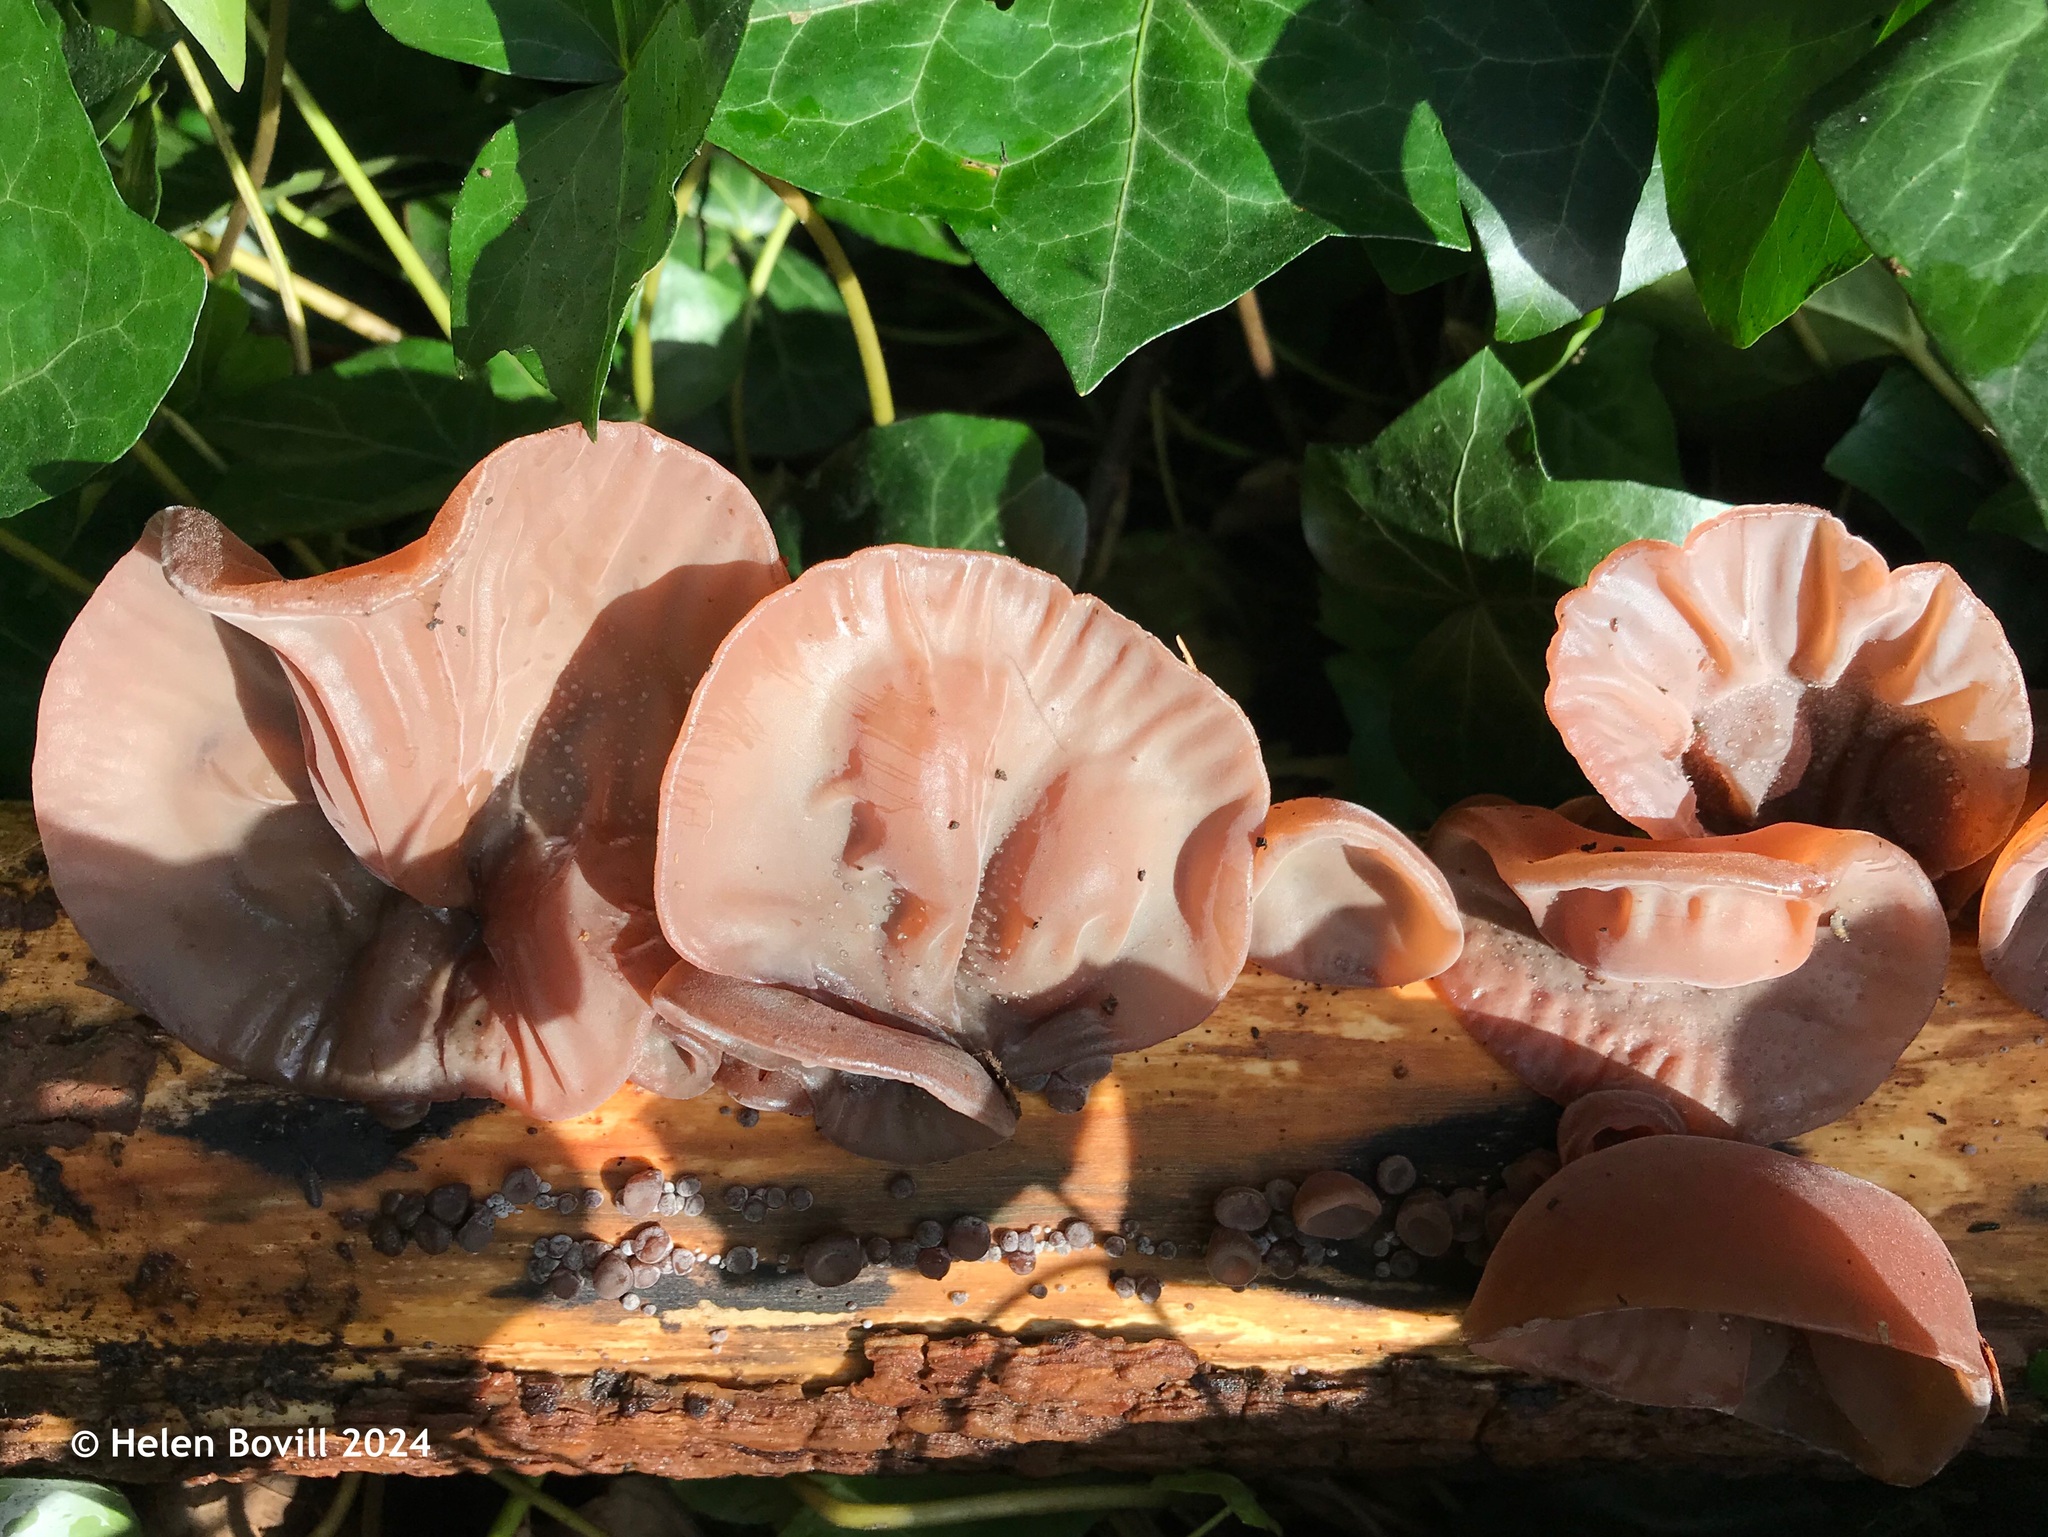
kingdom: Fungi
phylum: Basidiomycota
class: Agaricomycetes
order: Auriculariales
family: Auriculariaceae
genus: Auricularia
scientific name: Auricularia auricula-judae
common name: Jelly ear
